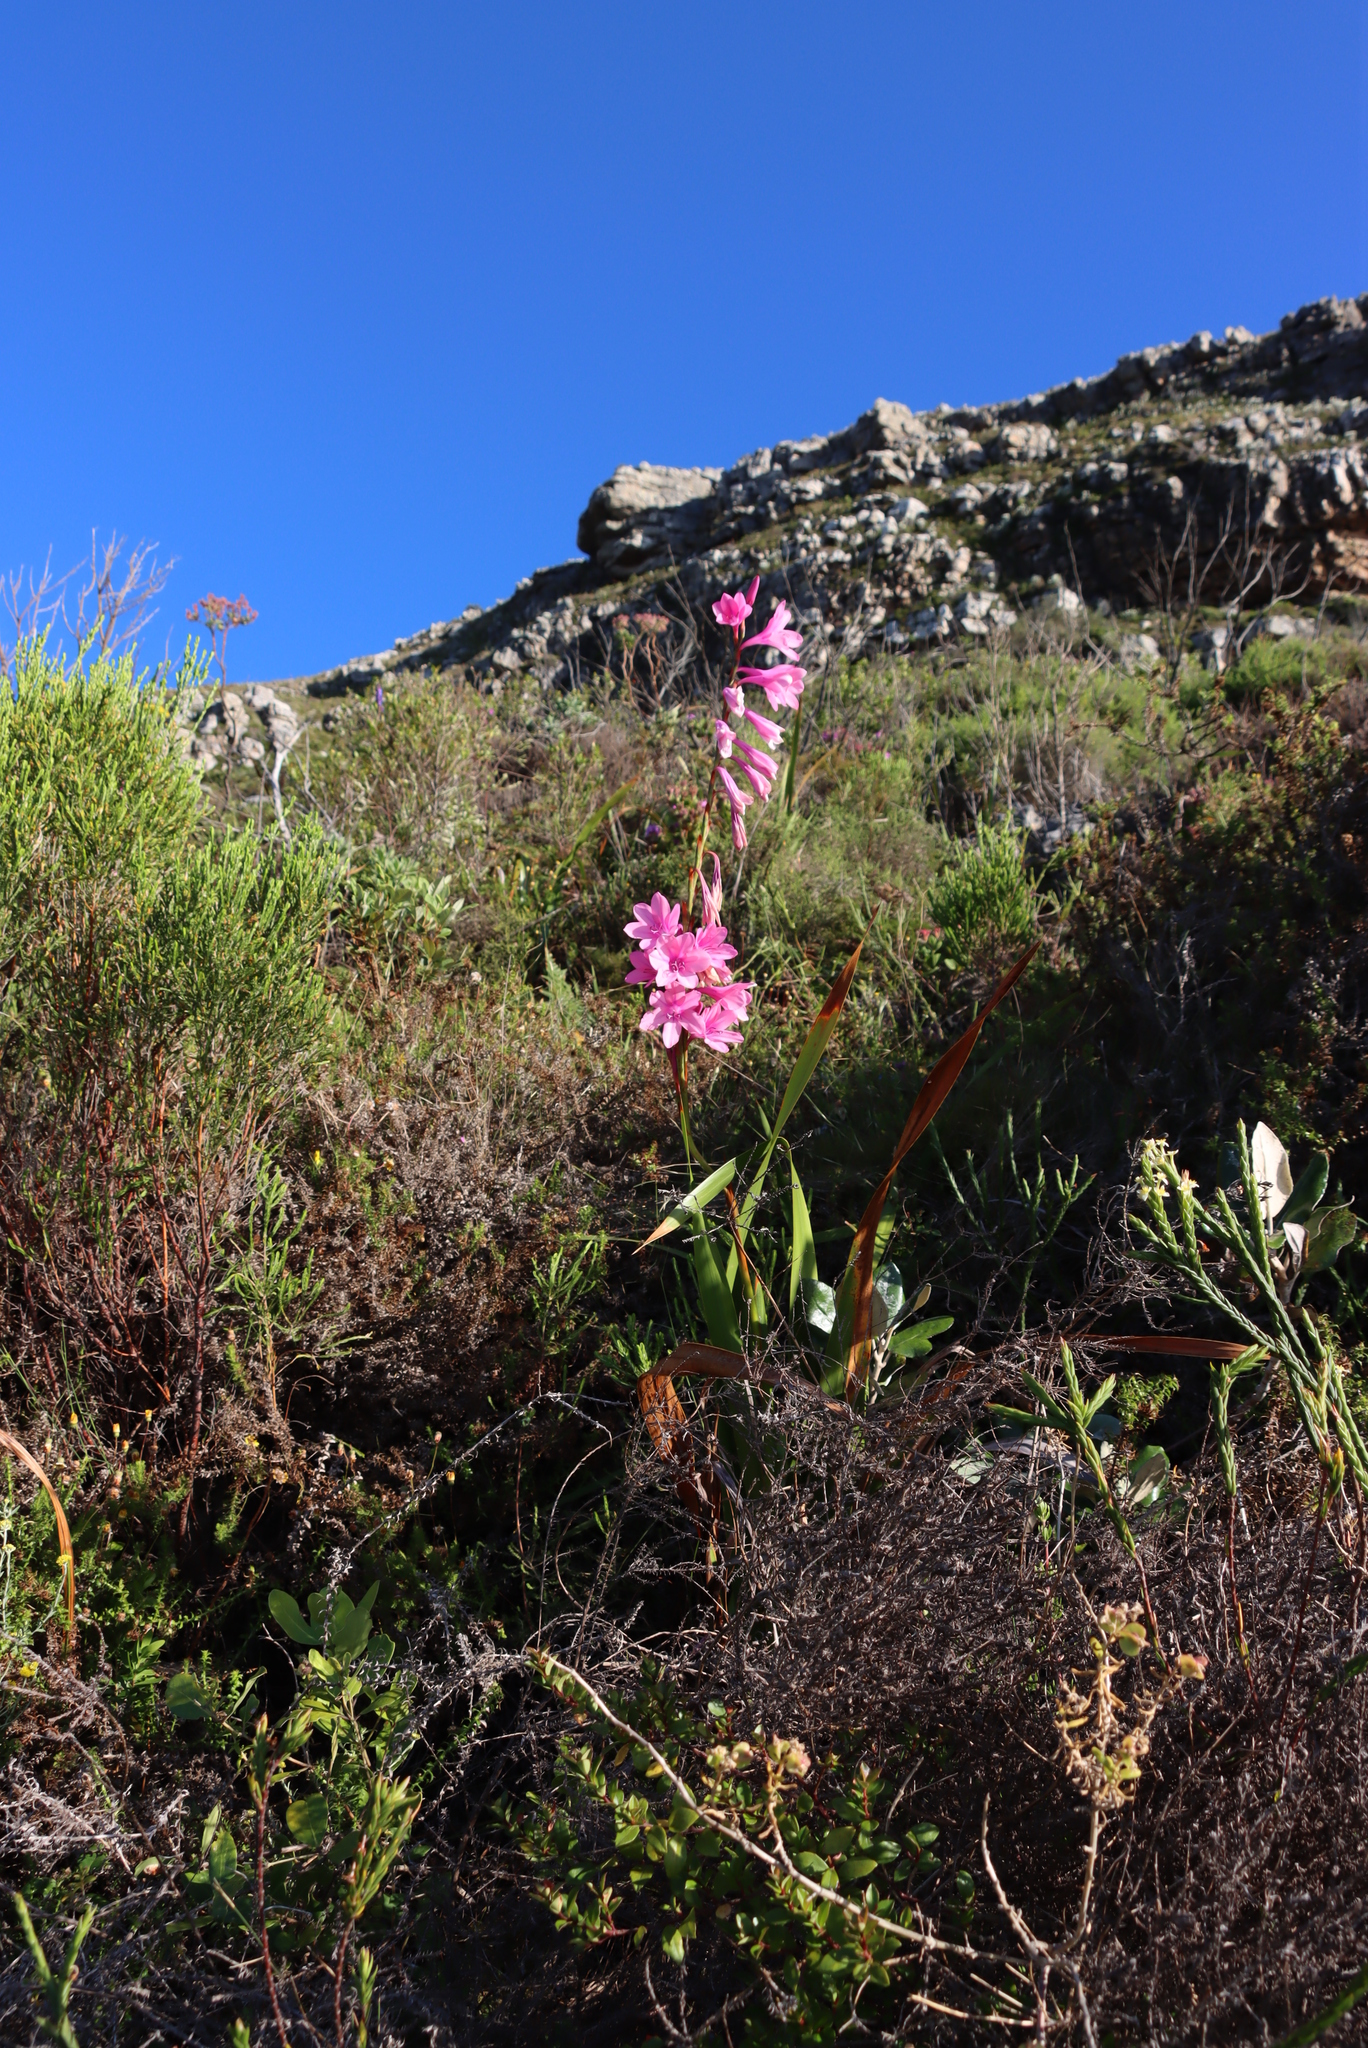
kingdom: Plantae
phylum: Tracheophyta
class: Liliopsida
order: Asparagales
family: Iridaceae
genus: Watsonia
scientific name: Watsonia borbonica
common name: Bugle-lily
